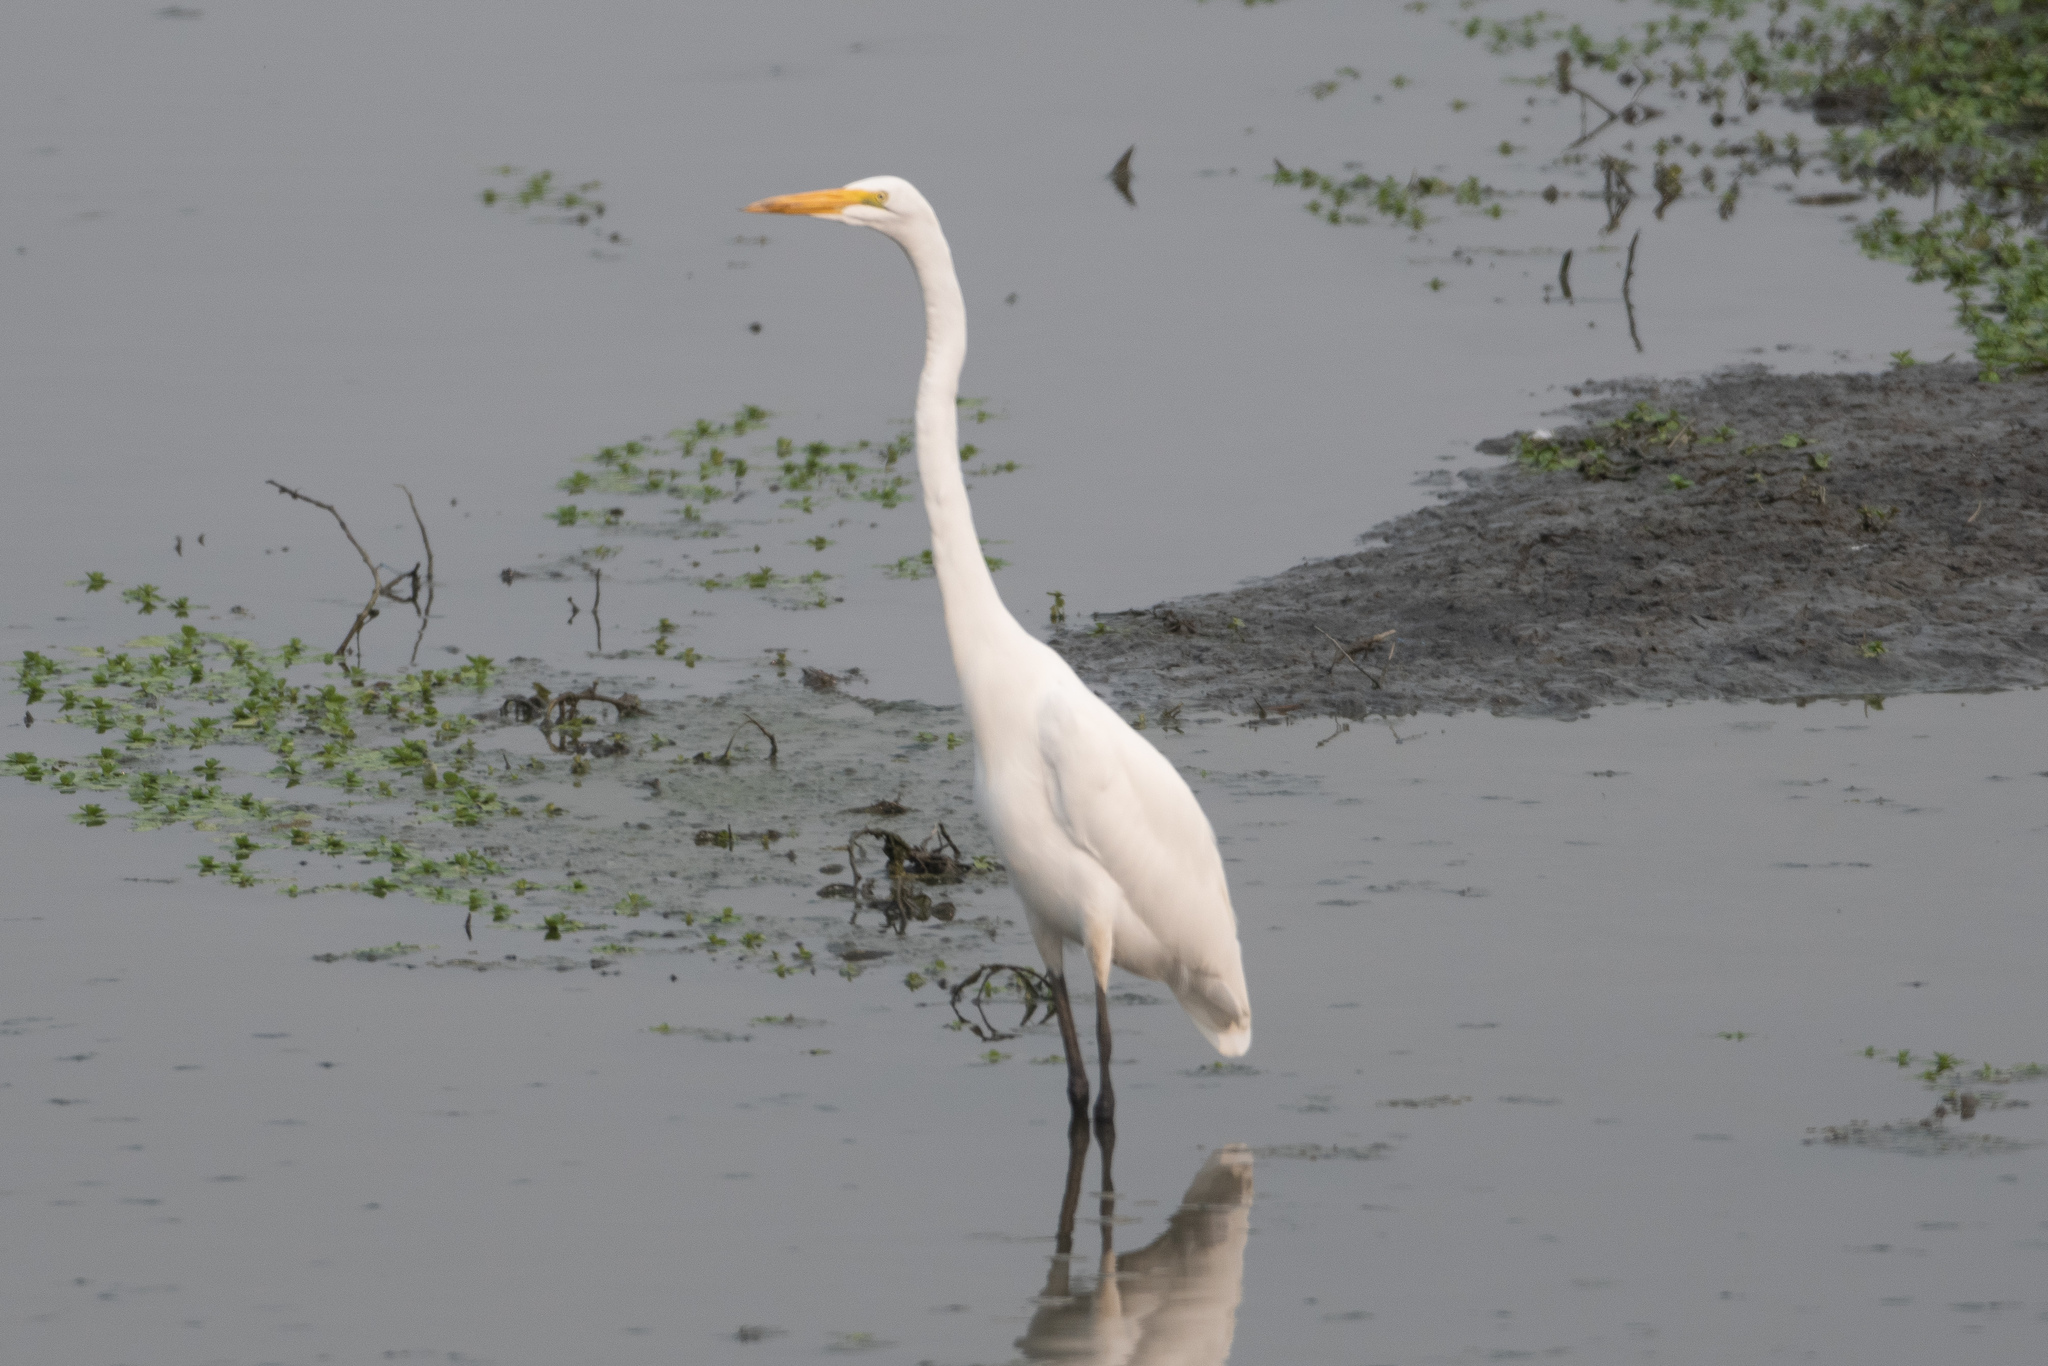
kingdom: Animalia
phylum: Chordata
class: Aves
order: Pelecaniformes
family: Ardeidae
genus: Ardea
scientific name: Ardea alba
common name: Great egret
